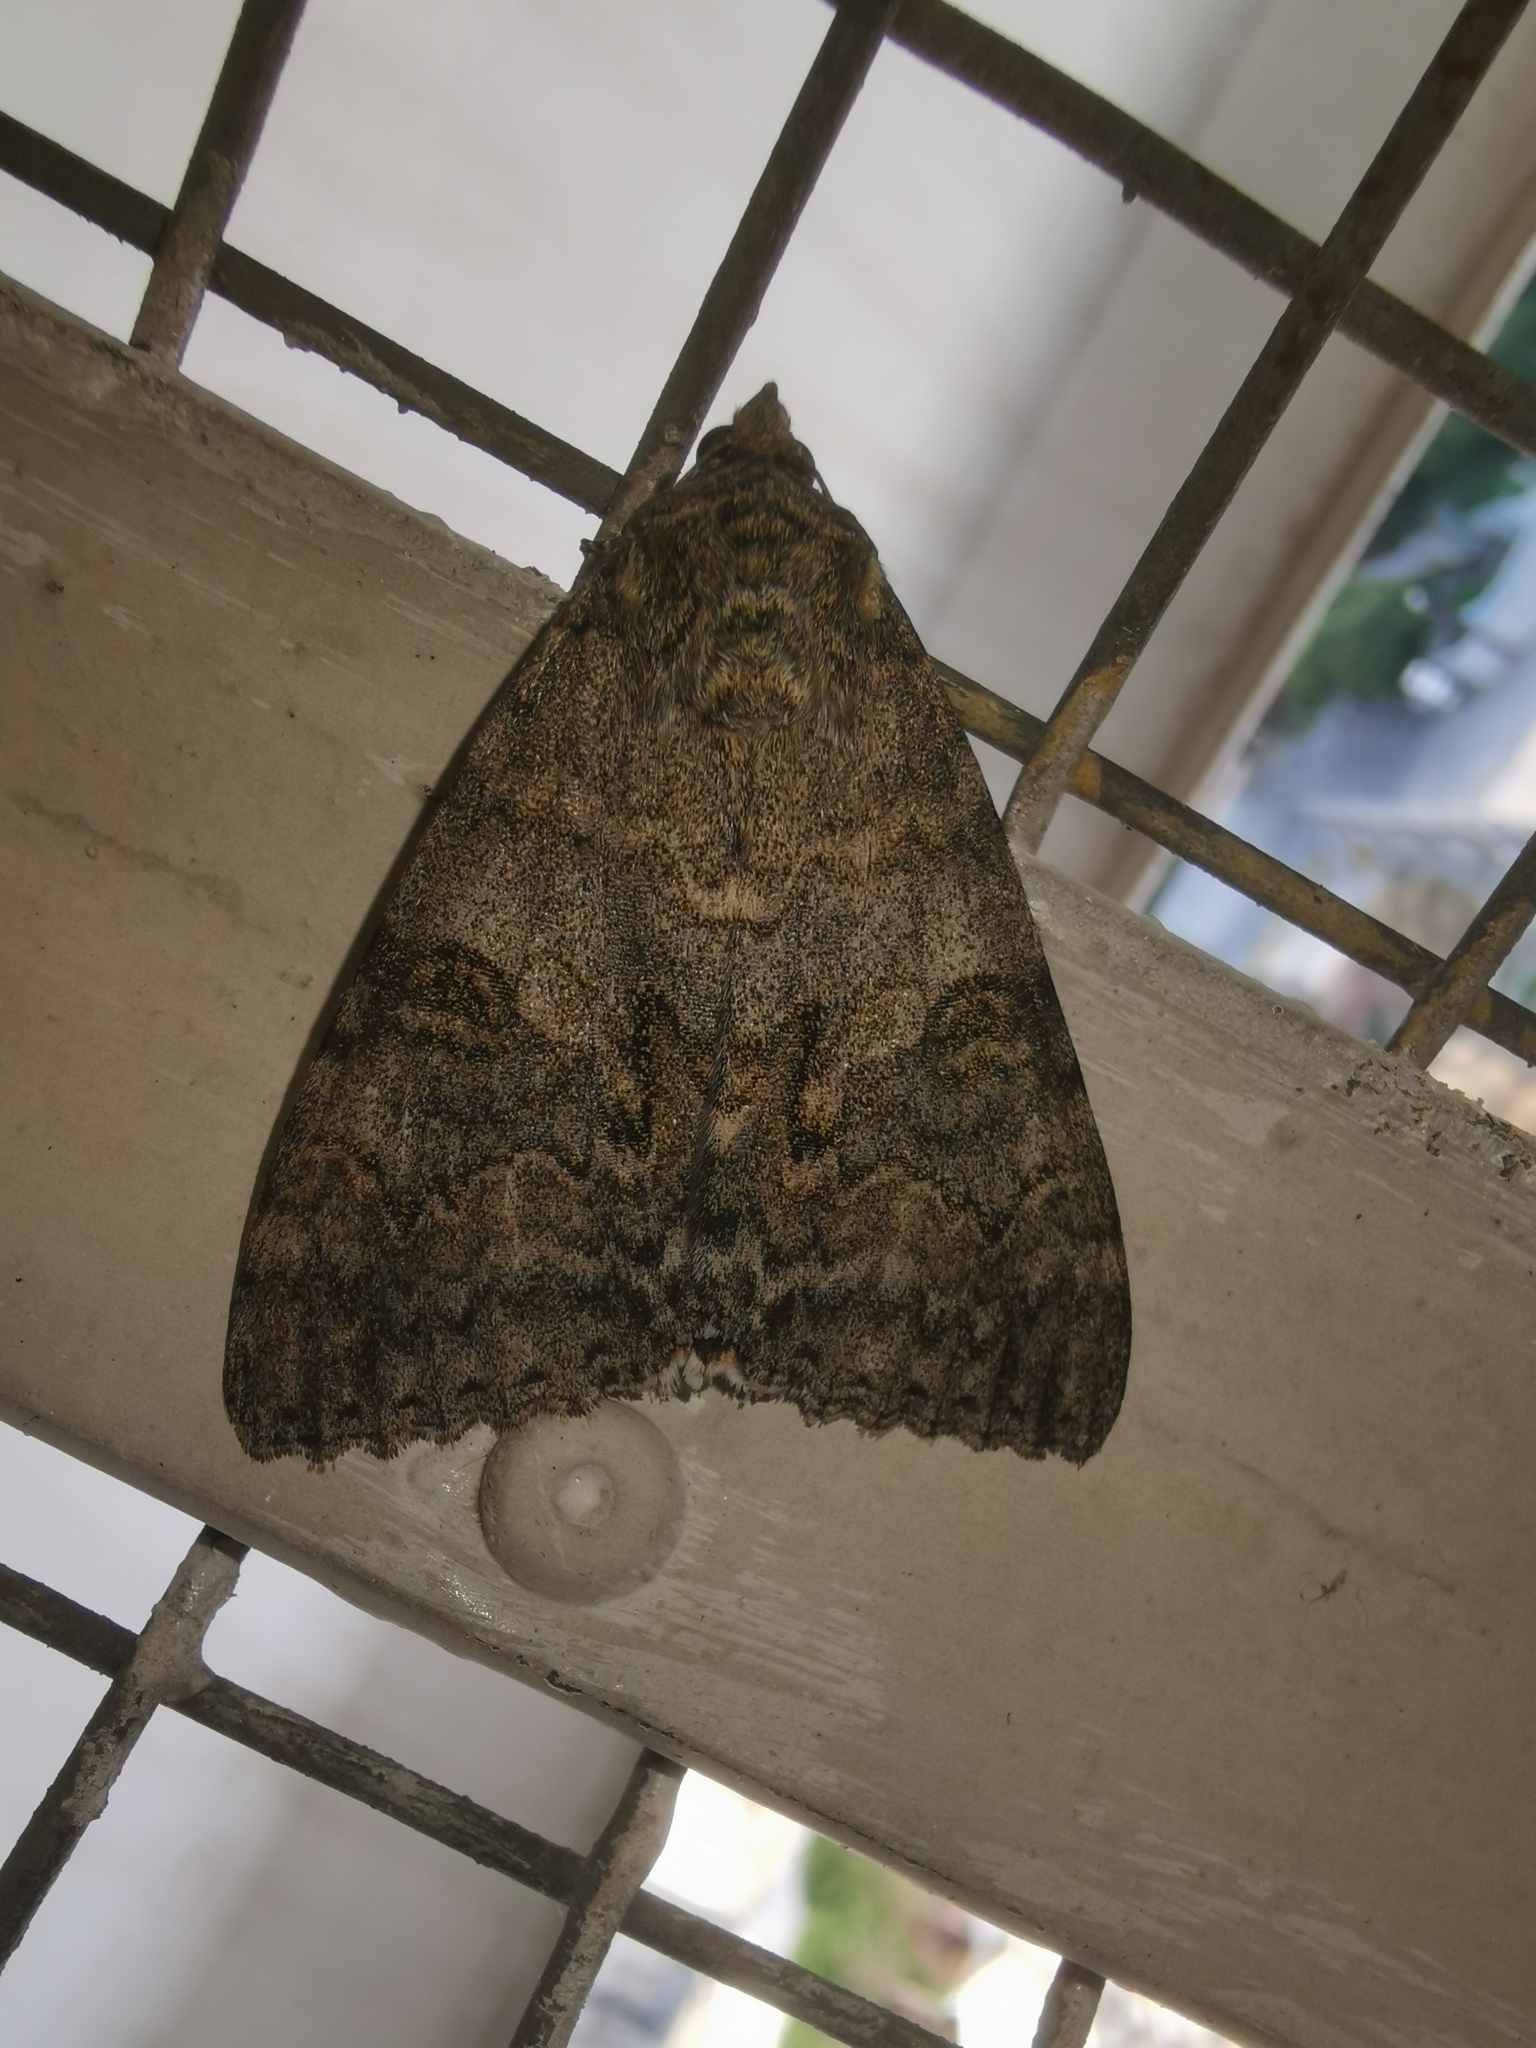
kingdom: Animalia
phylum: Arthropoda
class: Insecta
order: Lepidoptera
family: Erebidae
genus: Catocala
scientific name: Catocala nupta
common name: Red underwing
